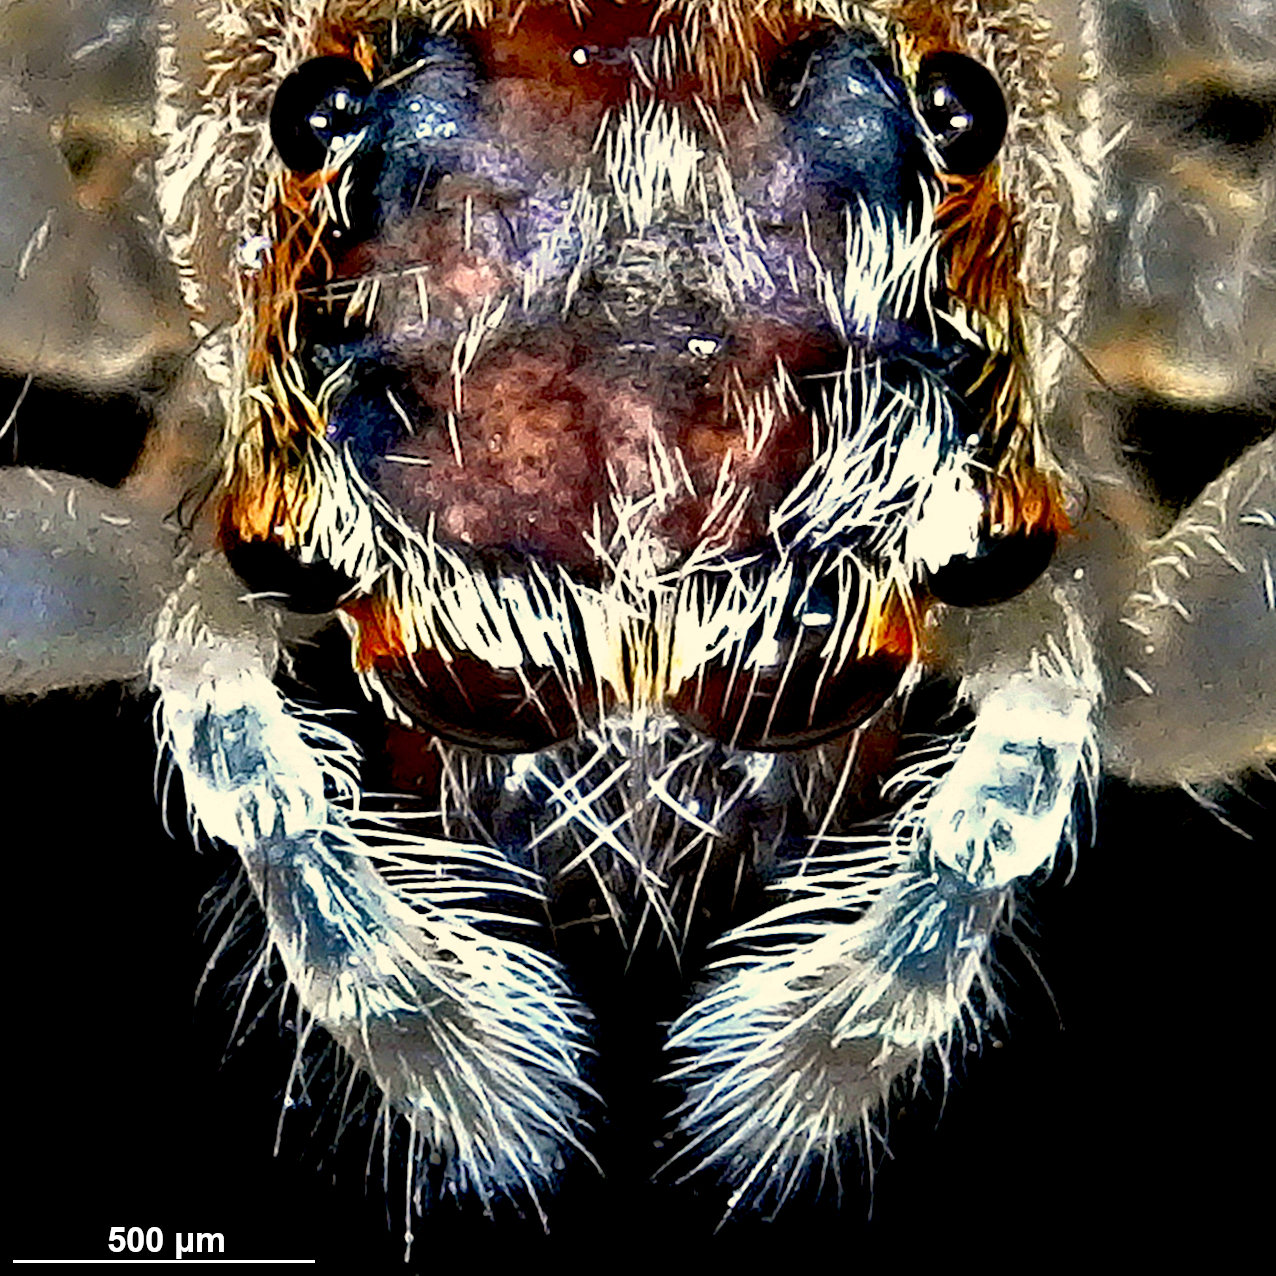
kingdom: Animalia
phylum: Arthropoda
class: Arachnida
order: Araneae
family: Salticidae
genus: Helpis
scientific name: Helpis minitabunda
